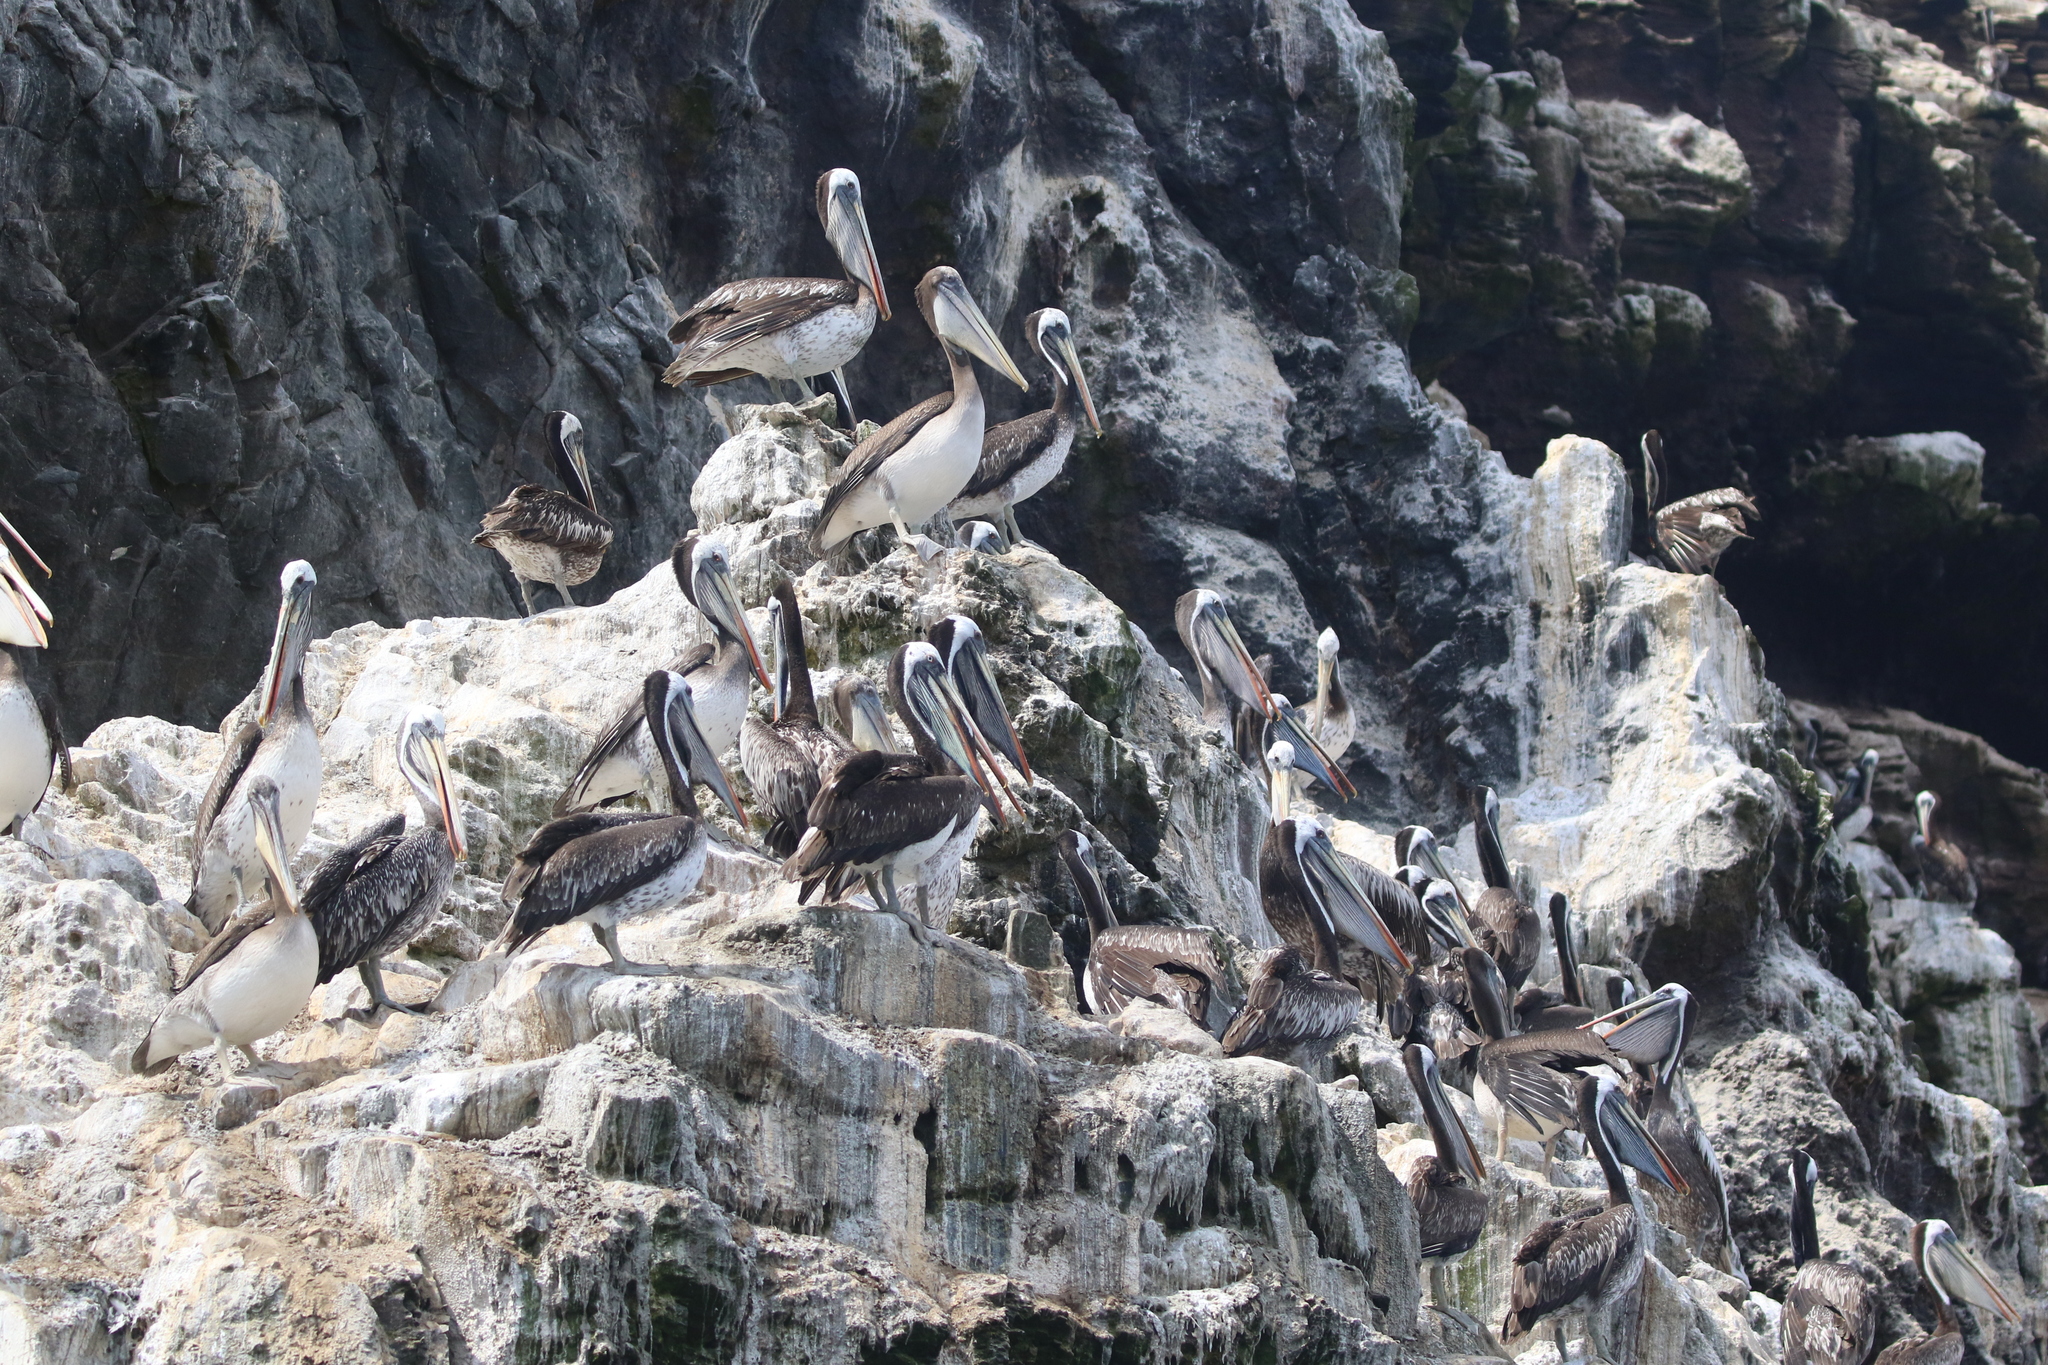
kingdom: Animalia
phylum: Chordata
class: Aves
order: Pelecaniformes
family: Pelecanidae
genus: Pelecanus
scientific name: Pelecanus thagus
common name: Peruvian pelican
